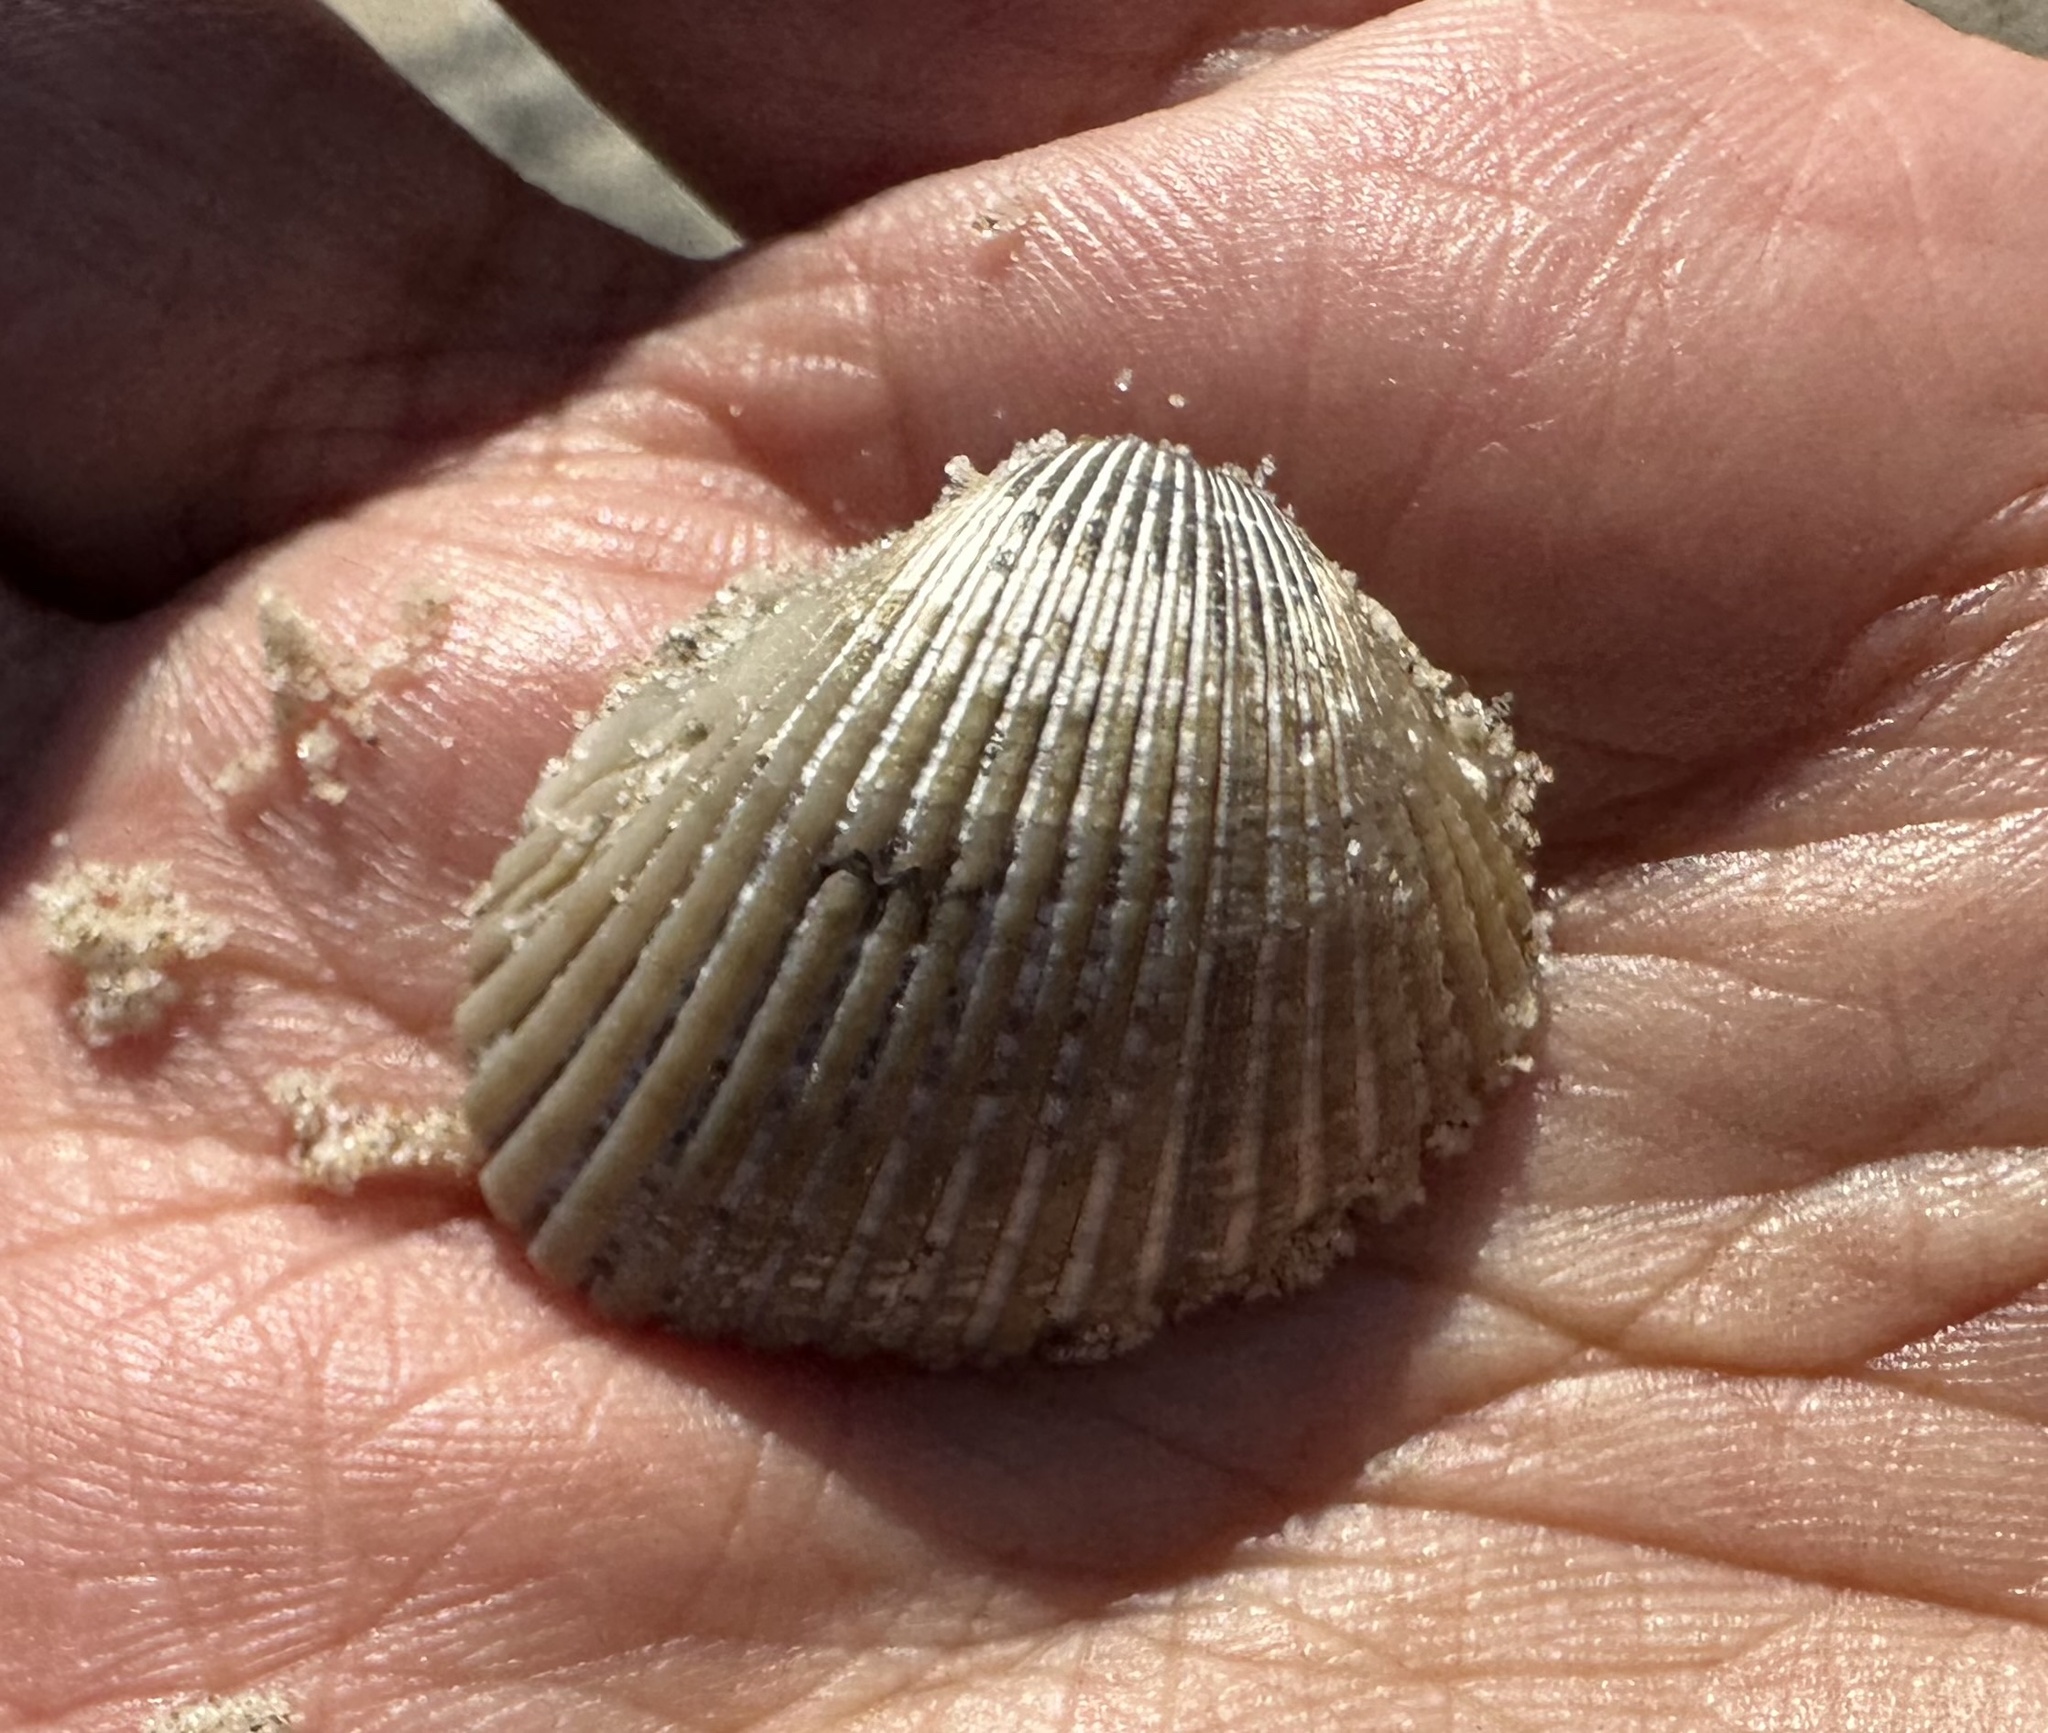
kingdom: Animalia
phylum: Mollusca
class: Bivalvia
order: Arcida
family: Arcidae
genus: Anadara
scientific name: Anadara trapezia
